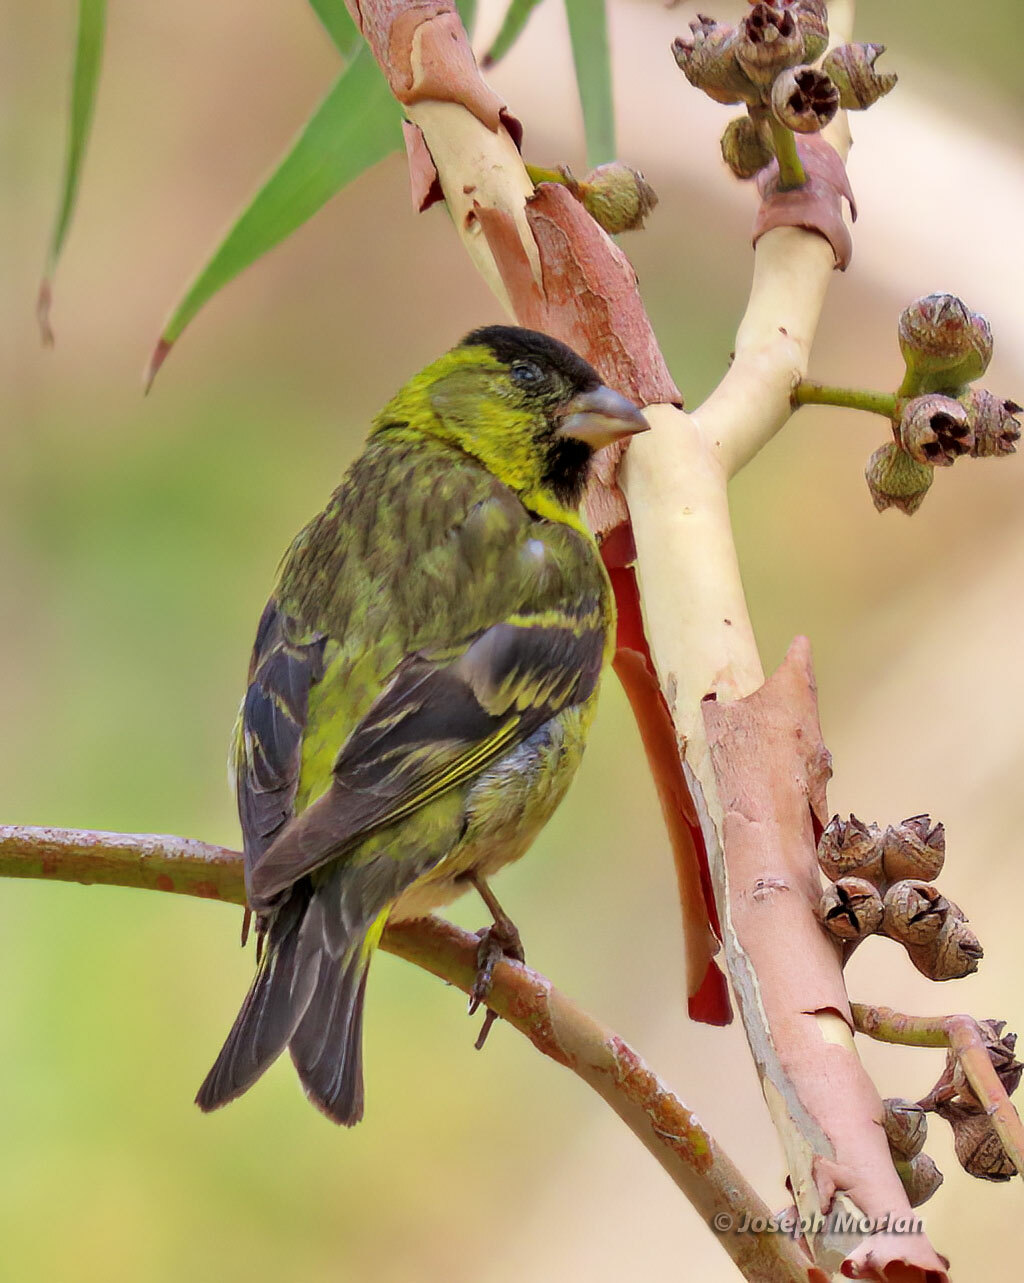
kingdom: Animalia
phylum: Chordata
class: Aves
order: Passeriformes
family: Fringillidae
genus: Spinus
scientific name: Spinus barbatus
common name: Black-chinned siskin
